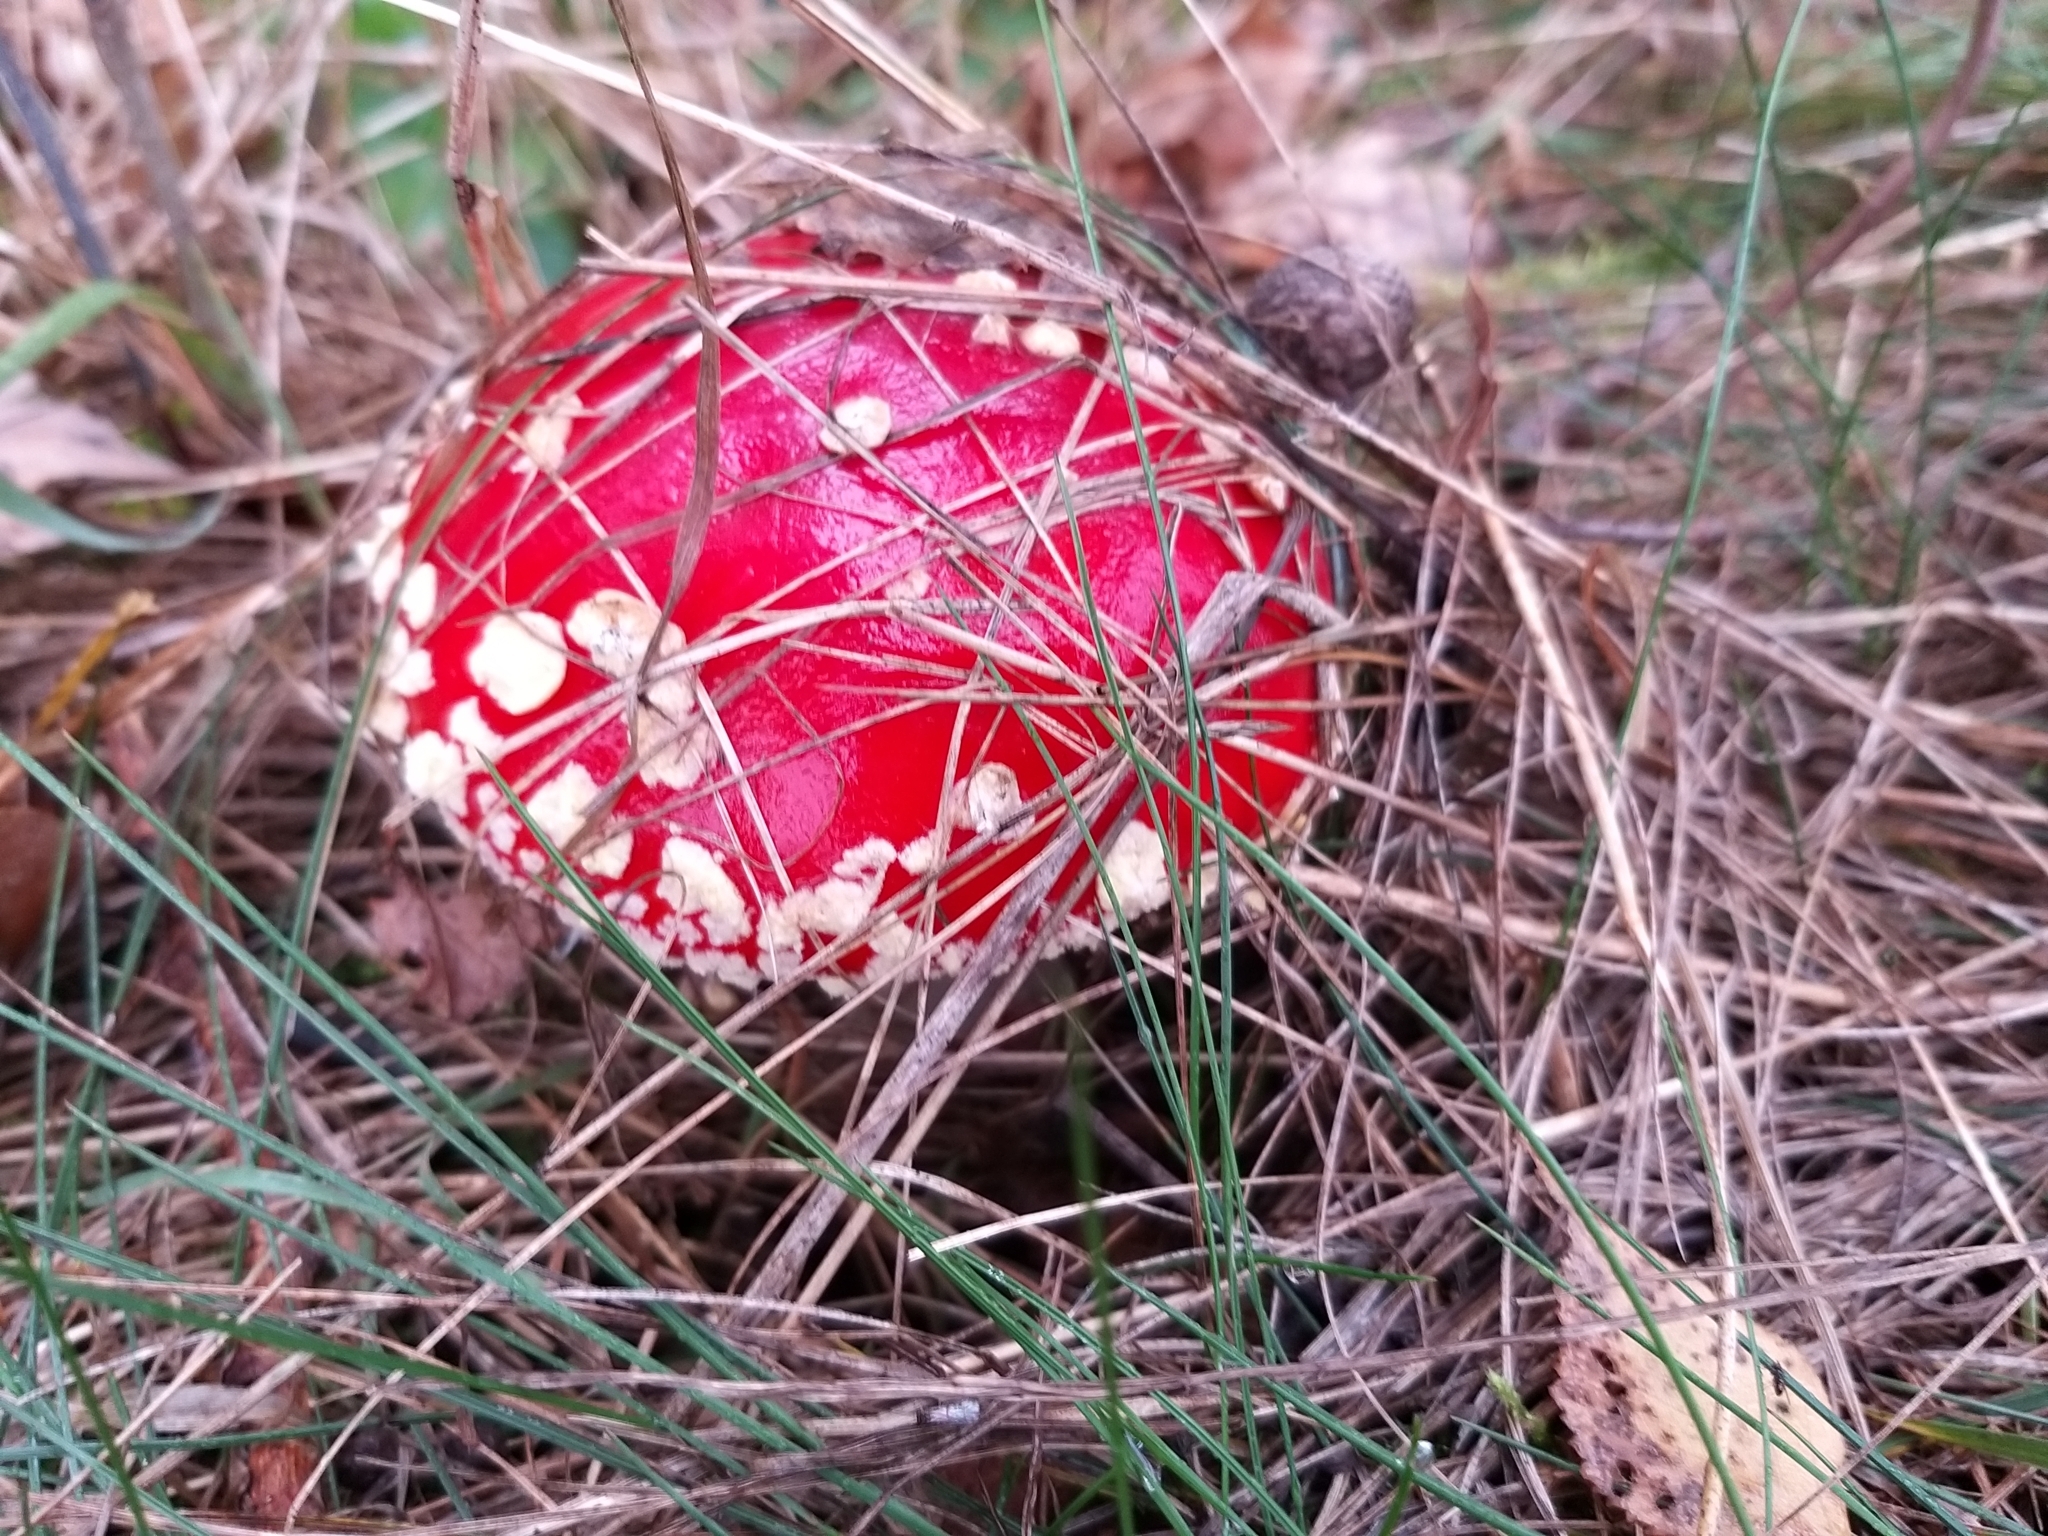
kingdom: Fungi
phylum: Basidiomycota
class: Agaricomycetes
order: Agaricales
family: Amanitaceae
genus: Amanita
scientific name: Amanita muscaria
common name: Fly agaric
